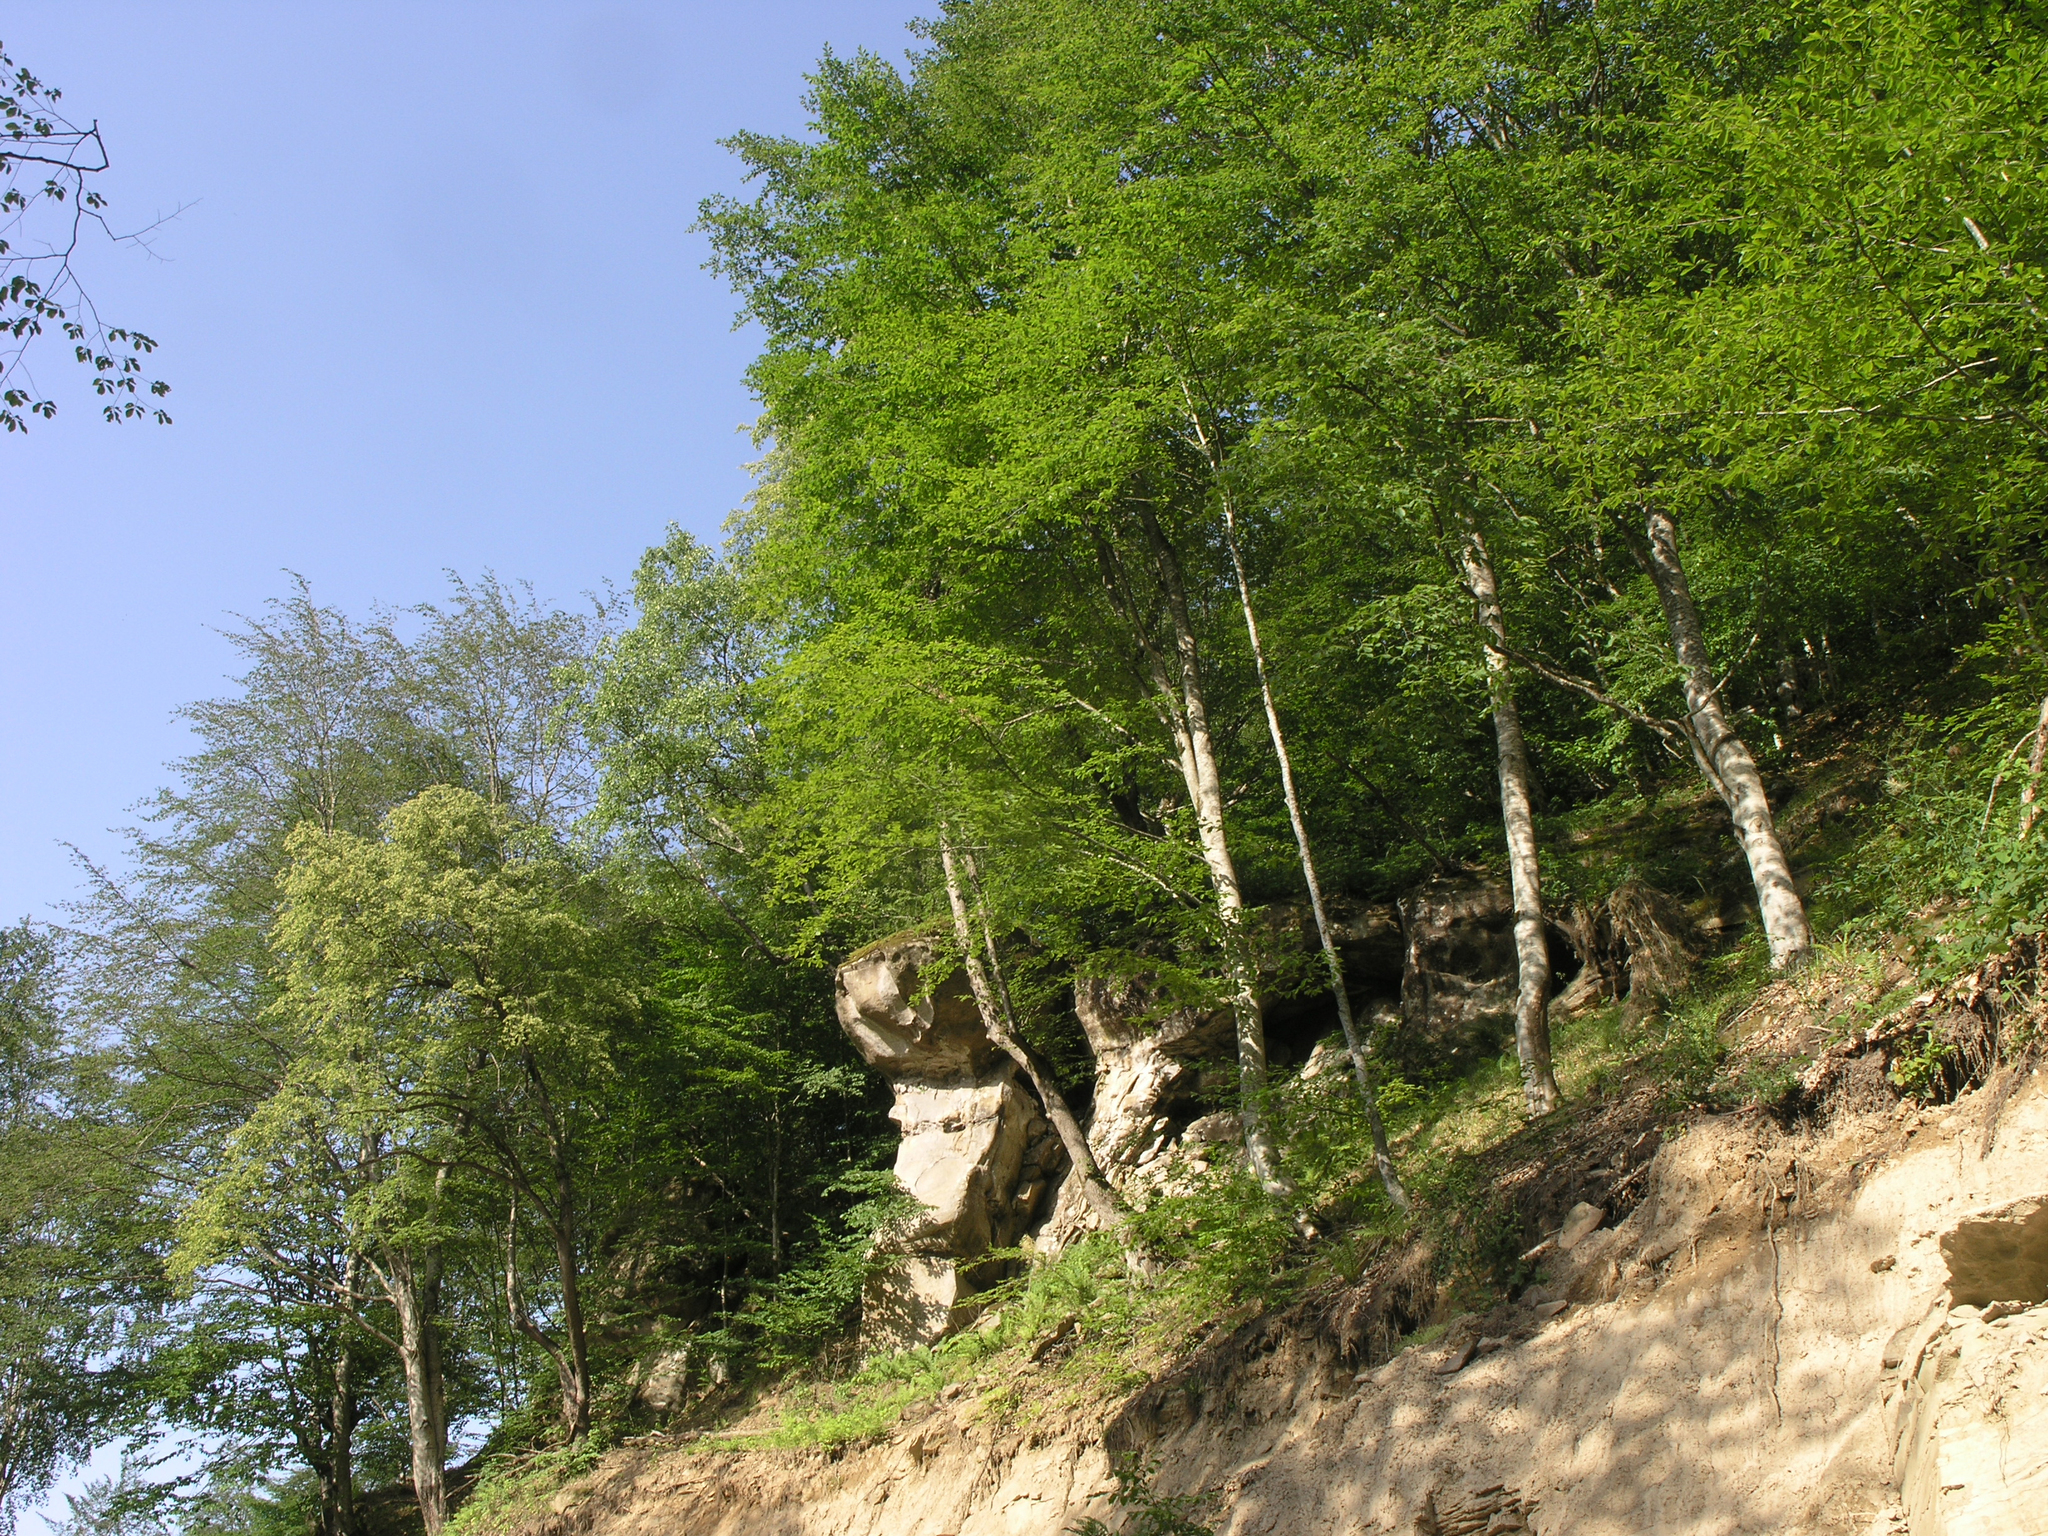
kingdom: Plantae
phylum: Tracheophyta
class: Magnoliopsida
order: Fagales
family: Fagaceae
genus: Fagus
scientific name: Fagus orientalis
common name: Oriental beech
